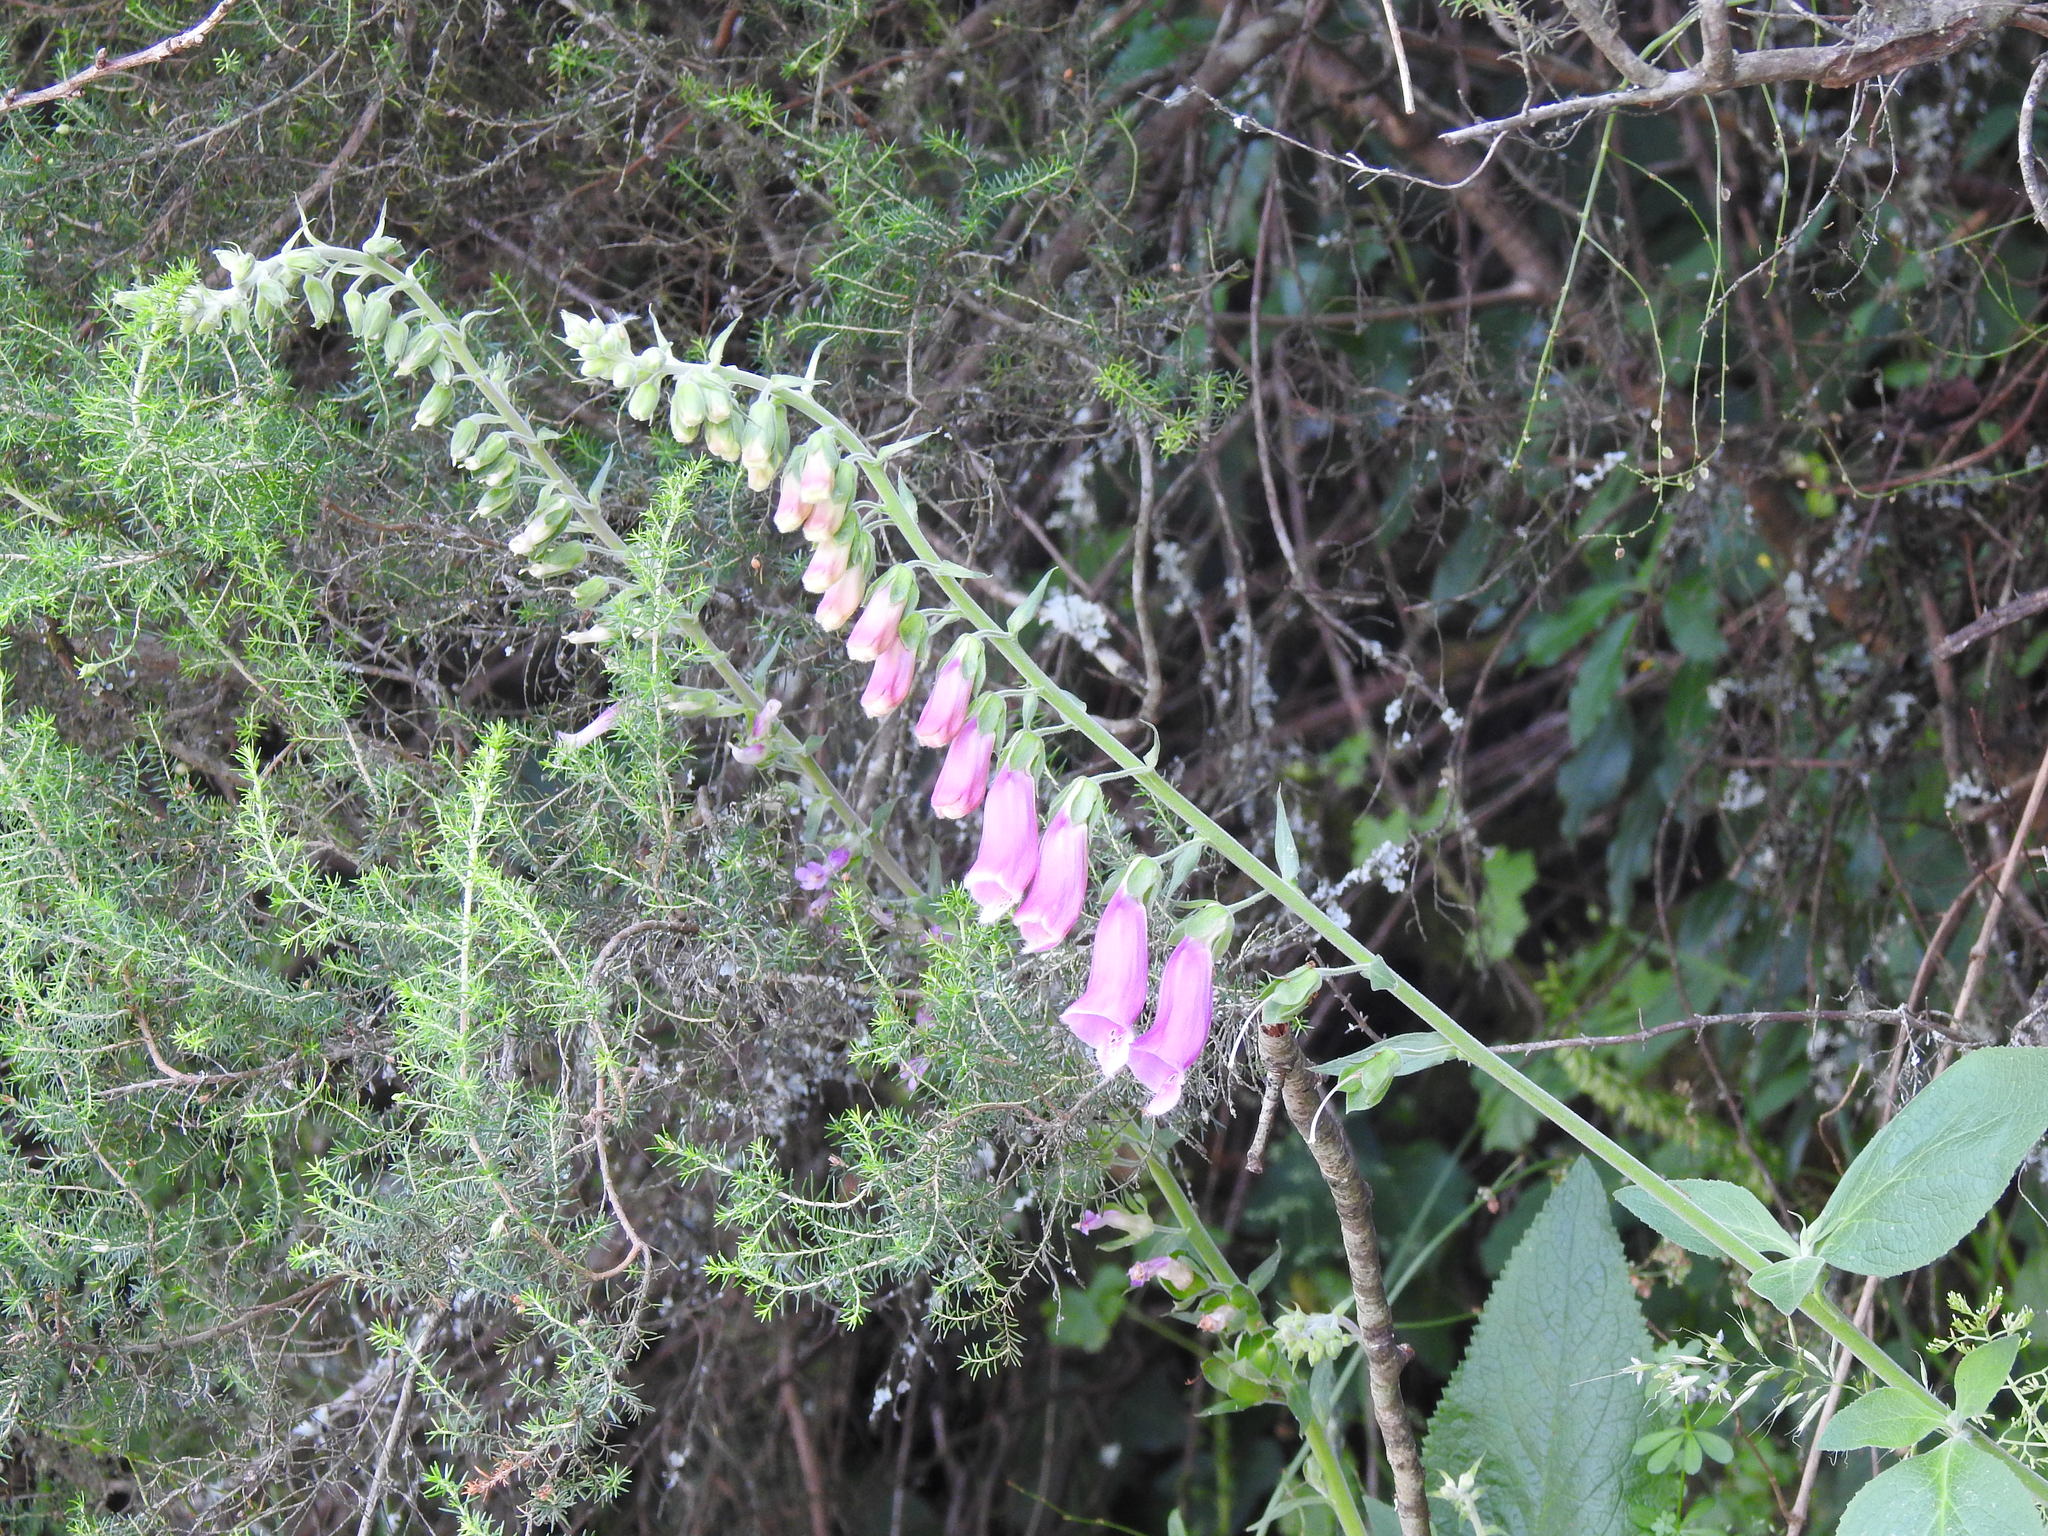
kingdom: Plantae
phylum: Tracheophyta
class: Magnoliopsida
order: Lamiales
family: Plantaginaceae
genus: Digitalis
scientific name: Digitalis purpurea
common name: Foxglove
